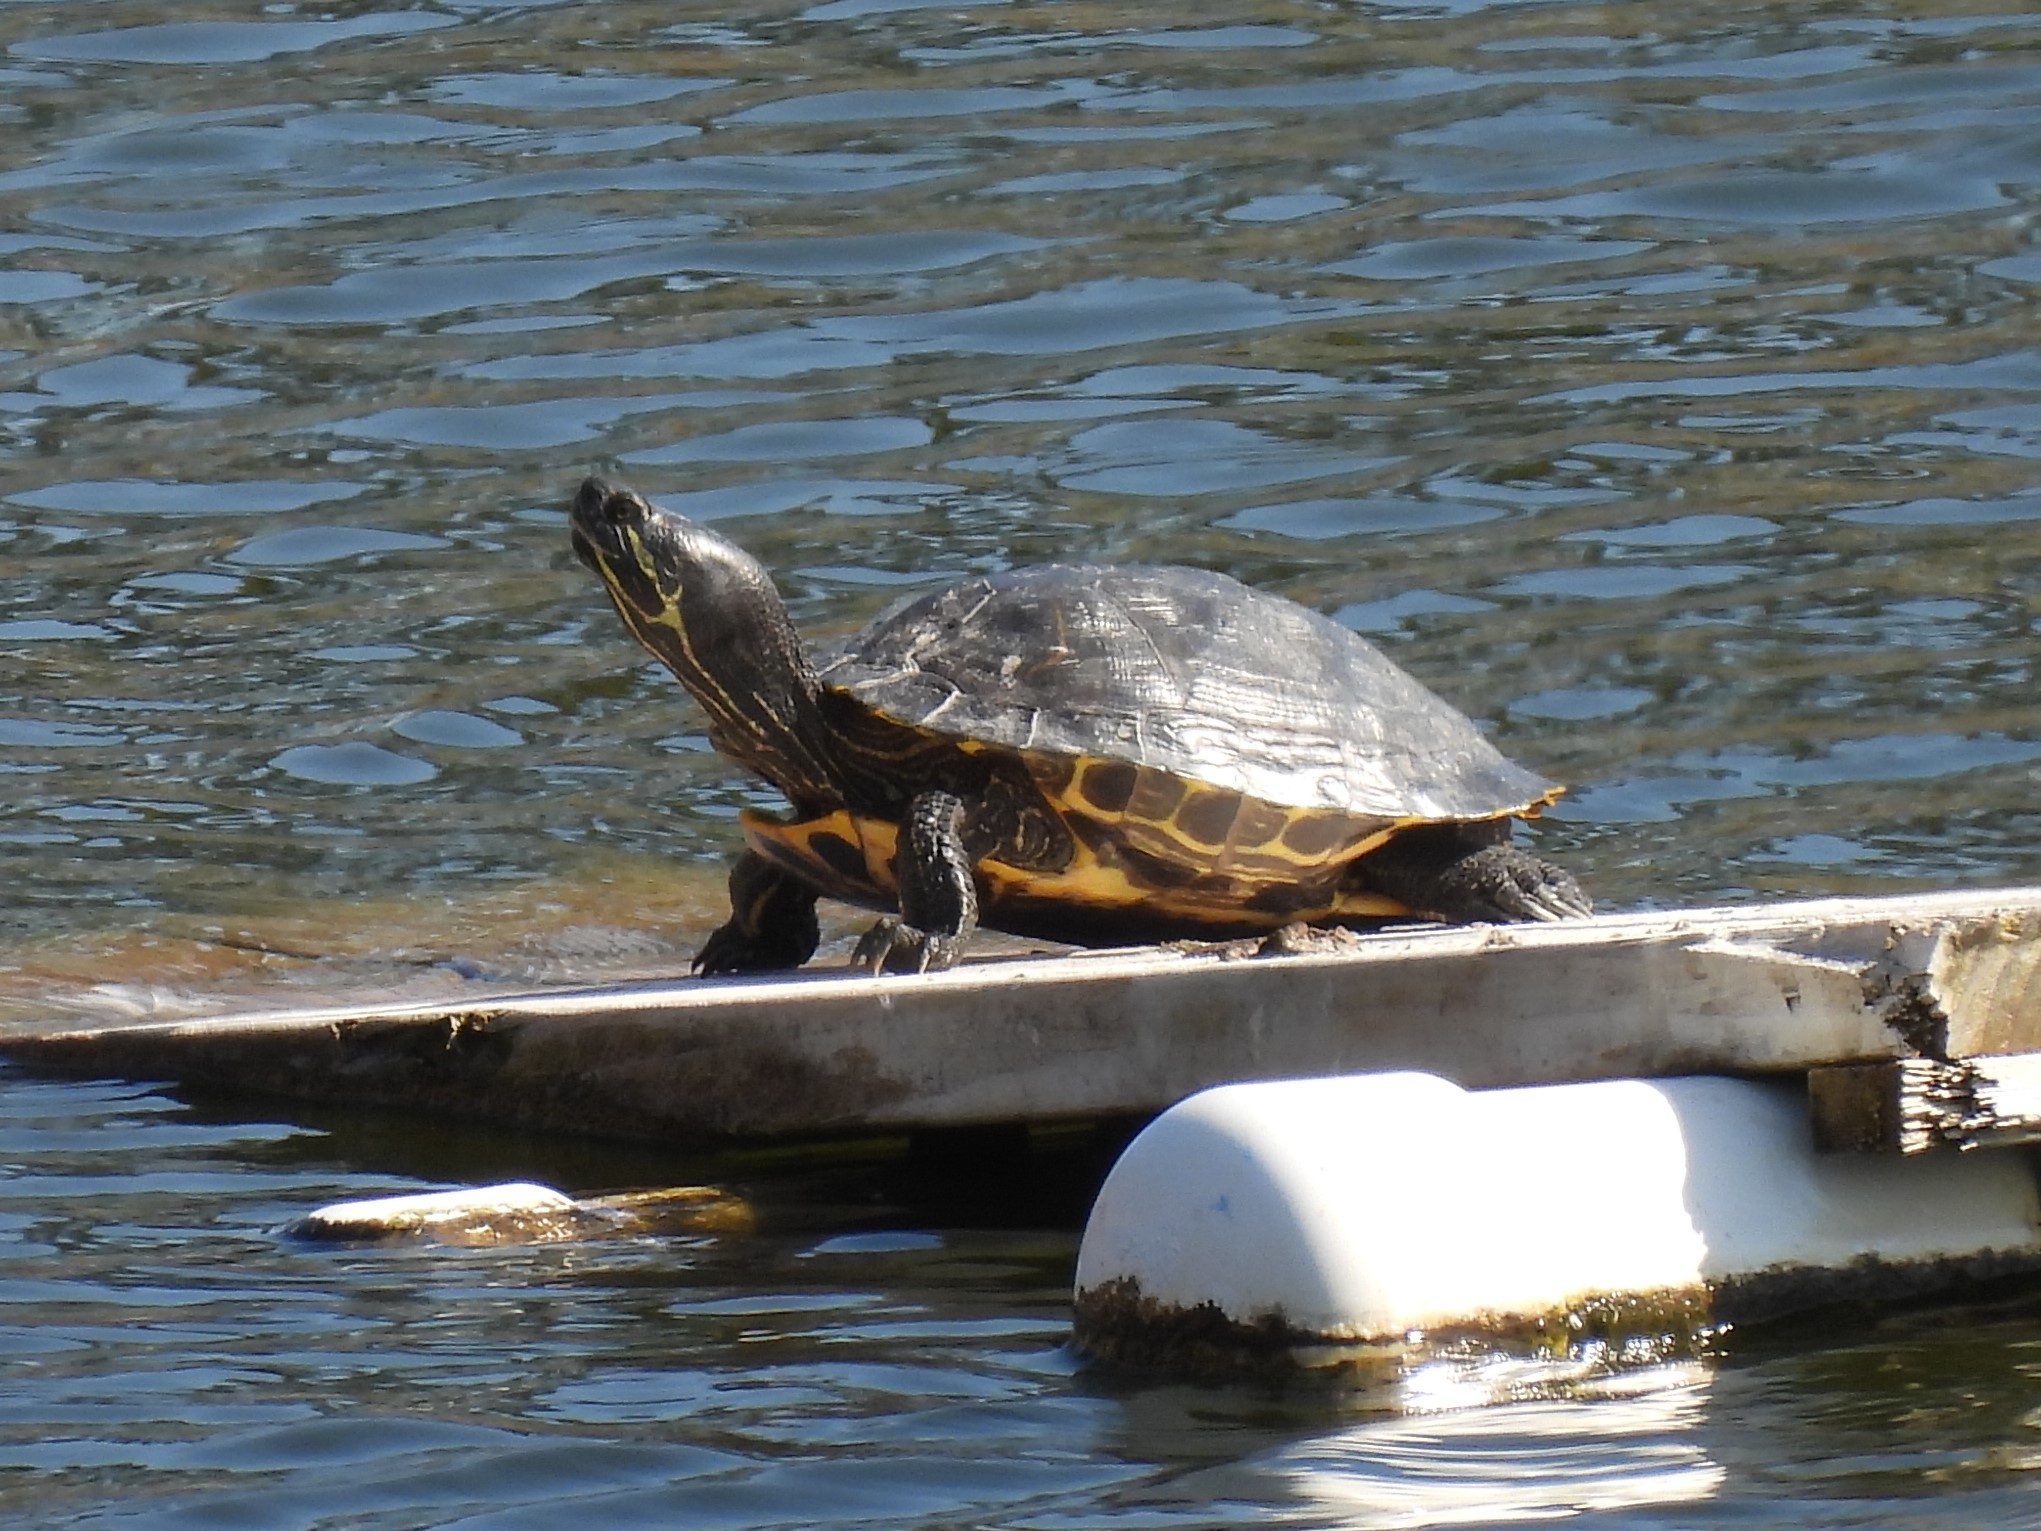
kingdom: Animalia
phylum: Chordata
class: Testudines
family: Emydidae
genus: Trachemys
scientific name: Trachemys scripta
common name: Slider
